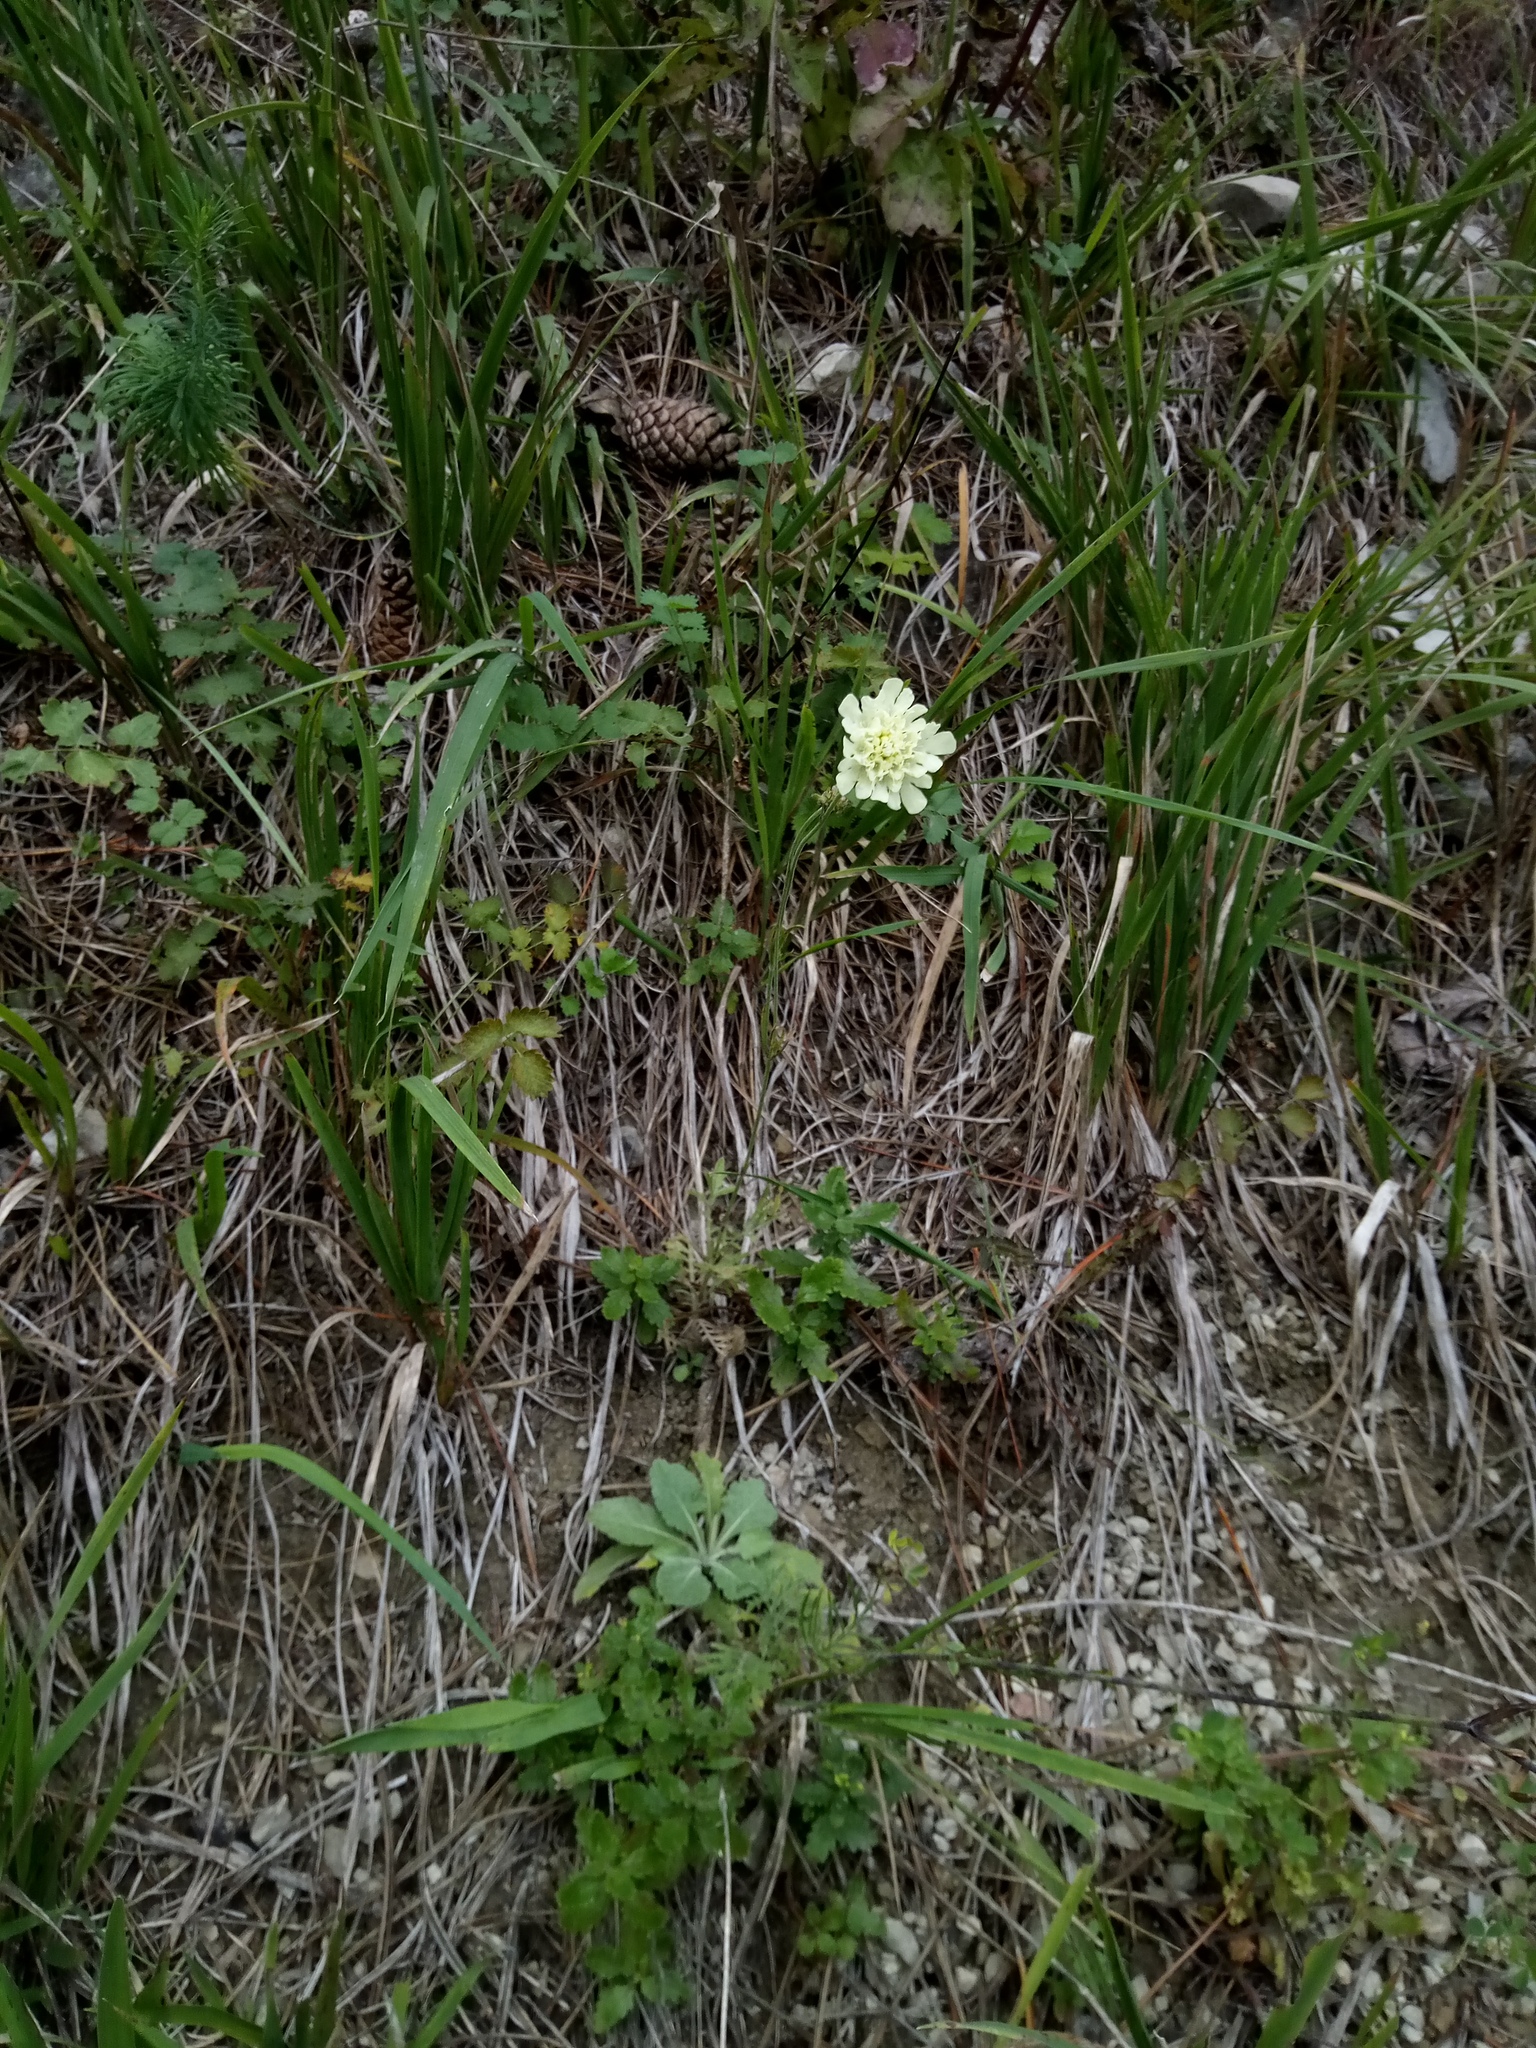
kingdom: Plantae
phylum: Tracheophyta
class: Magnoliopsida
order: Dipsacales
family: Caprifoliaceae
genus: Scabiosa
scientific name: Scabiosa ochroleuca
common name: Cream pincushions
